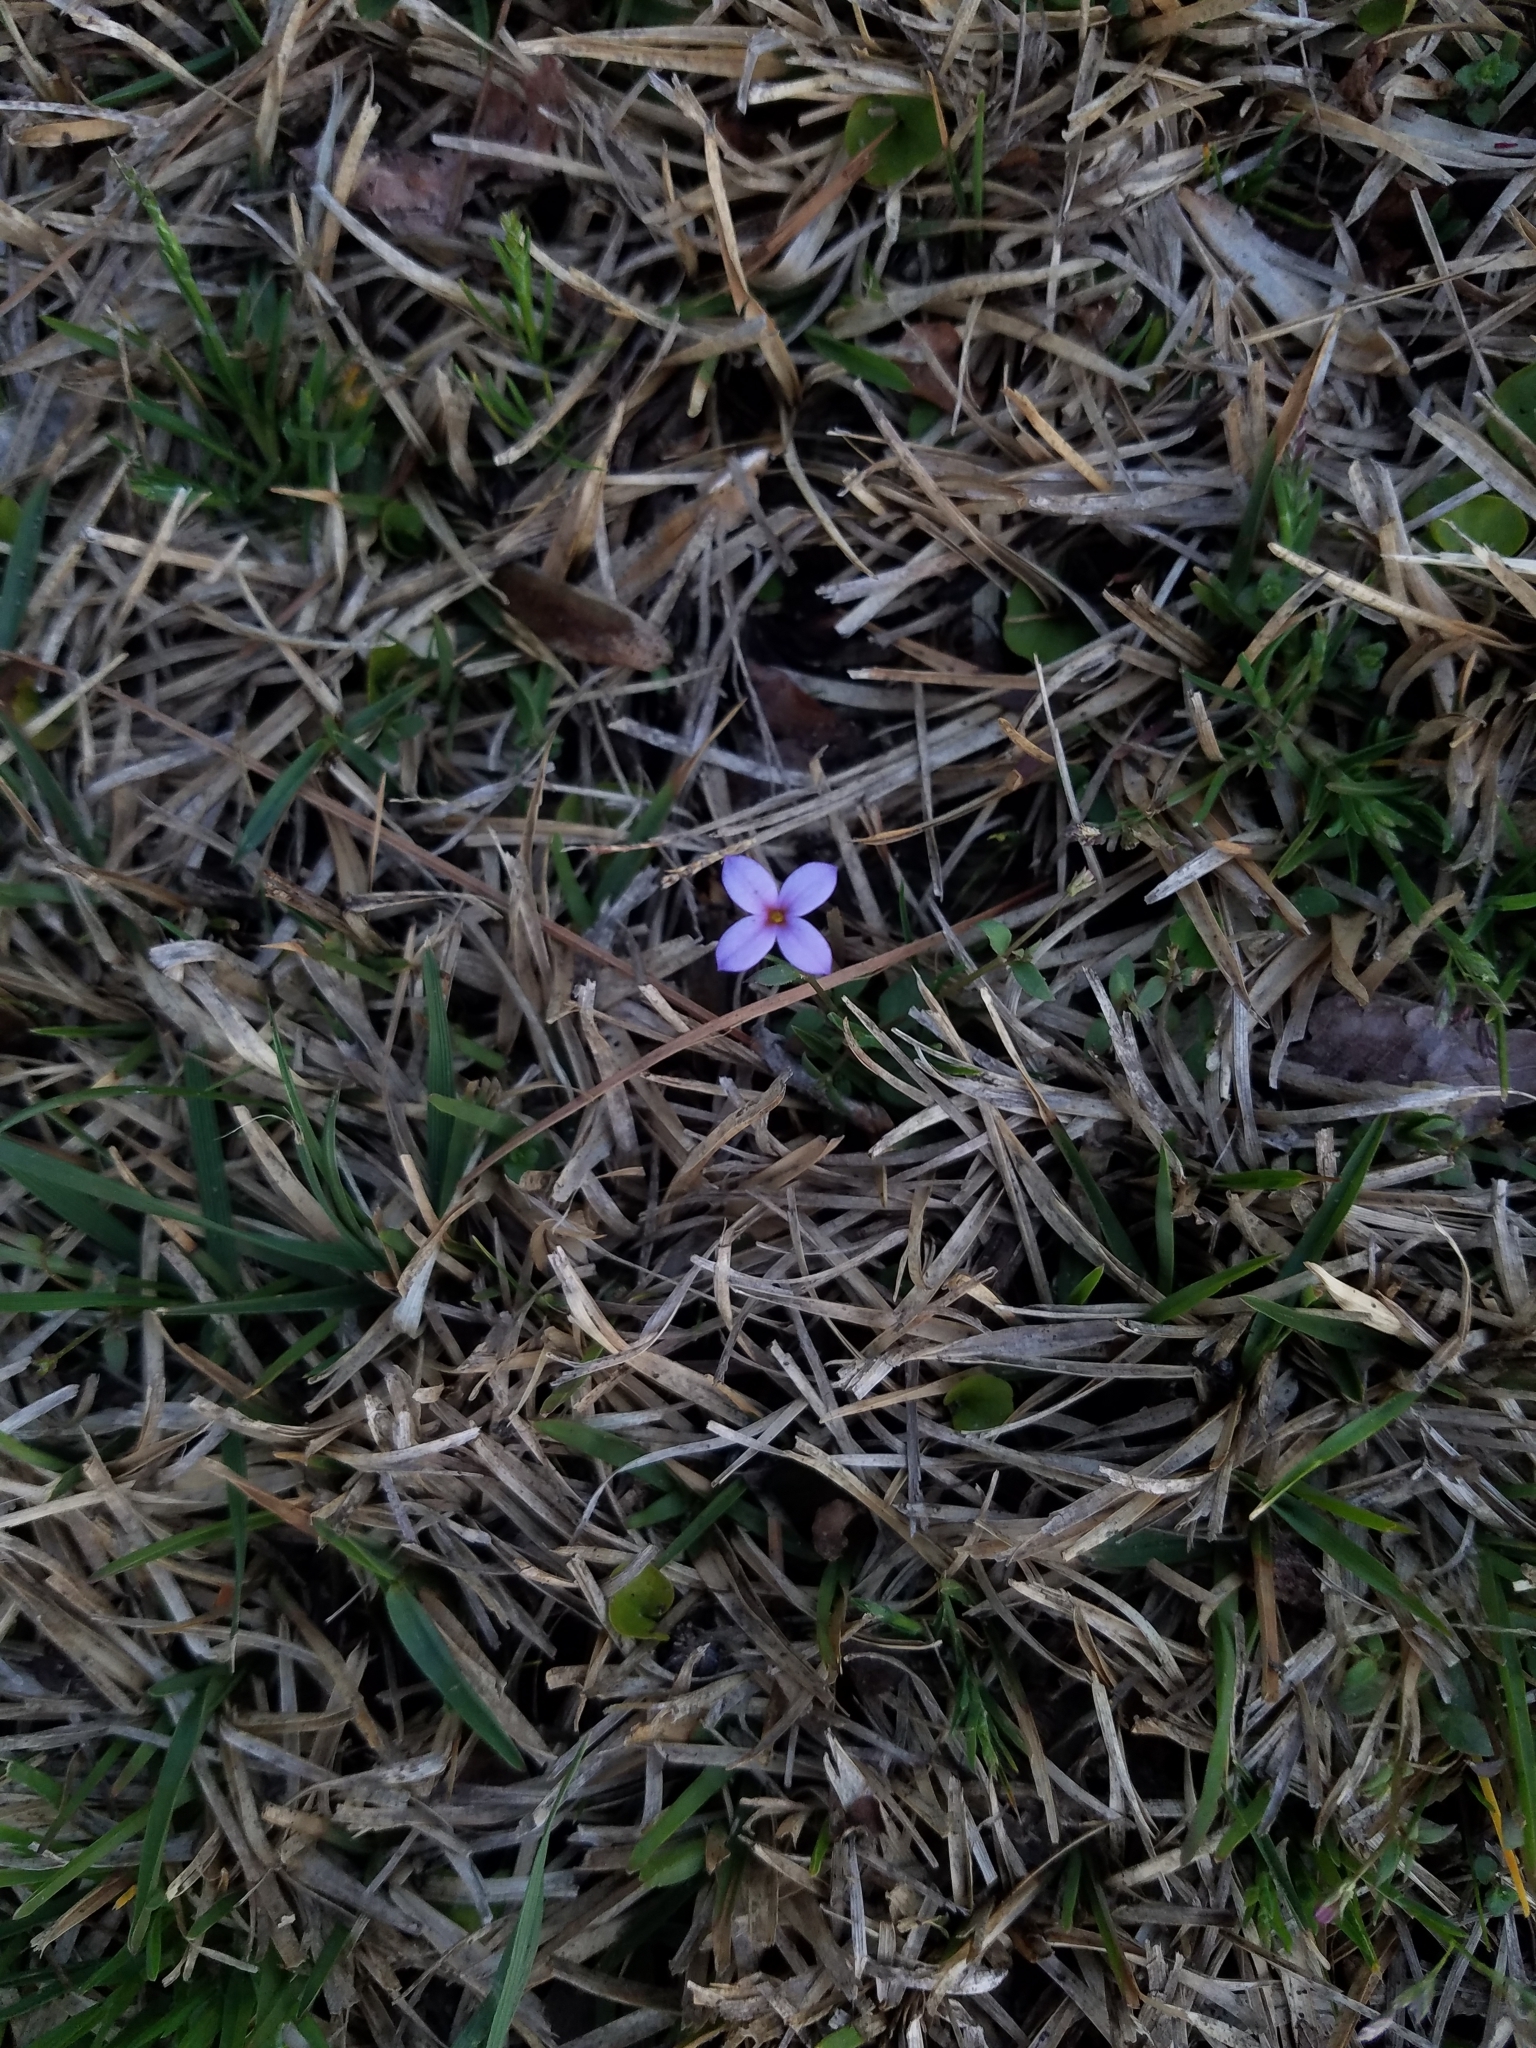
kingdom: Plantae
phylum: Tracheophyta
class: Magnoliopsida
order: Gentianales
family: Rubiaceae
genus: Houstonia
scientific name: Houstonia pusilla
